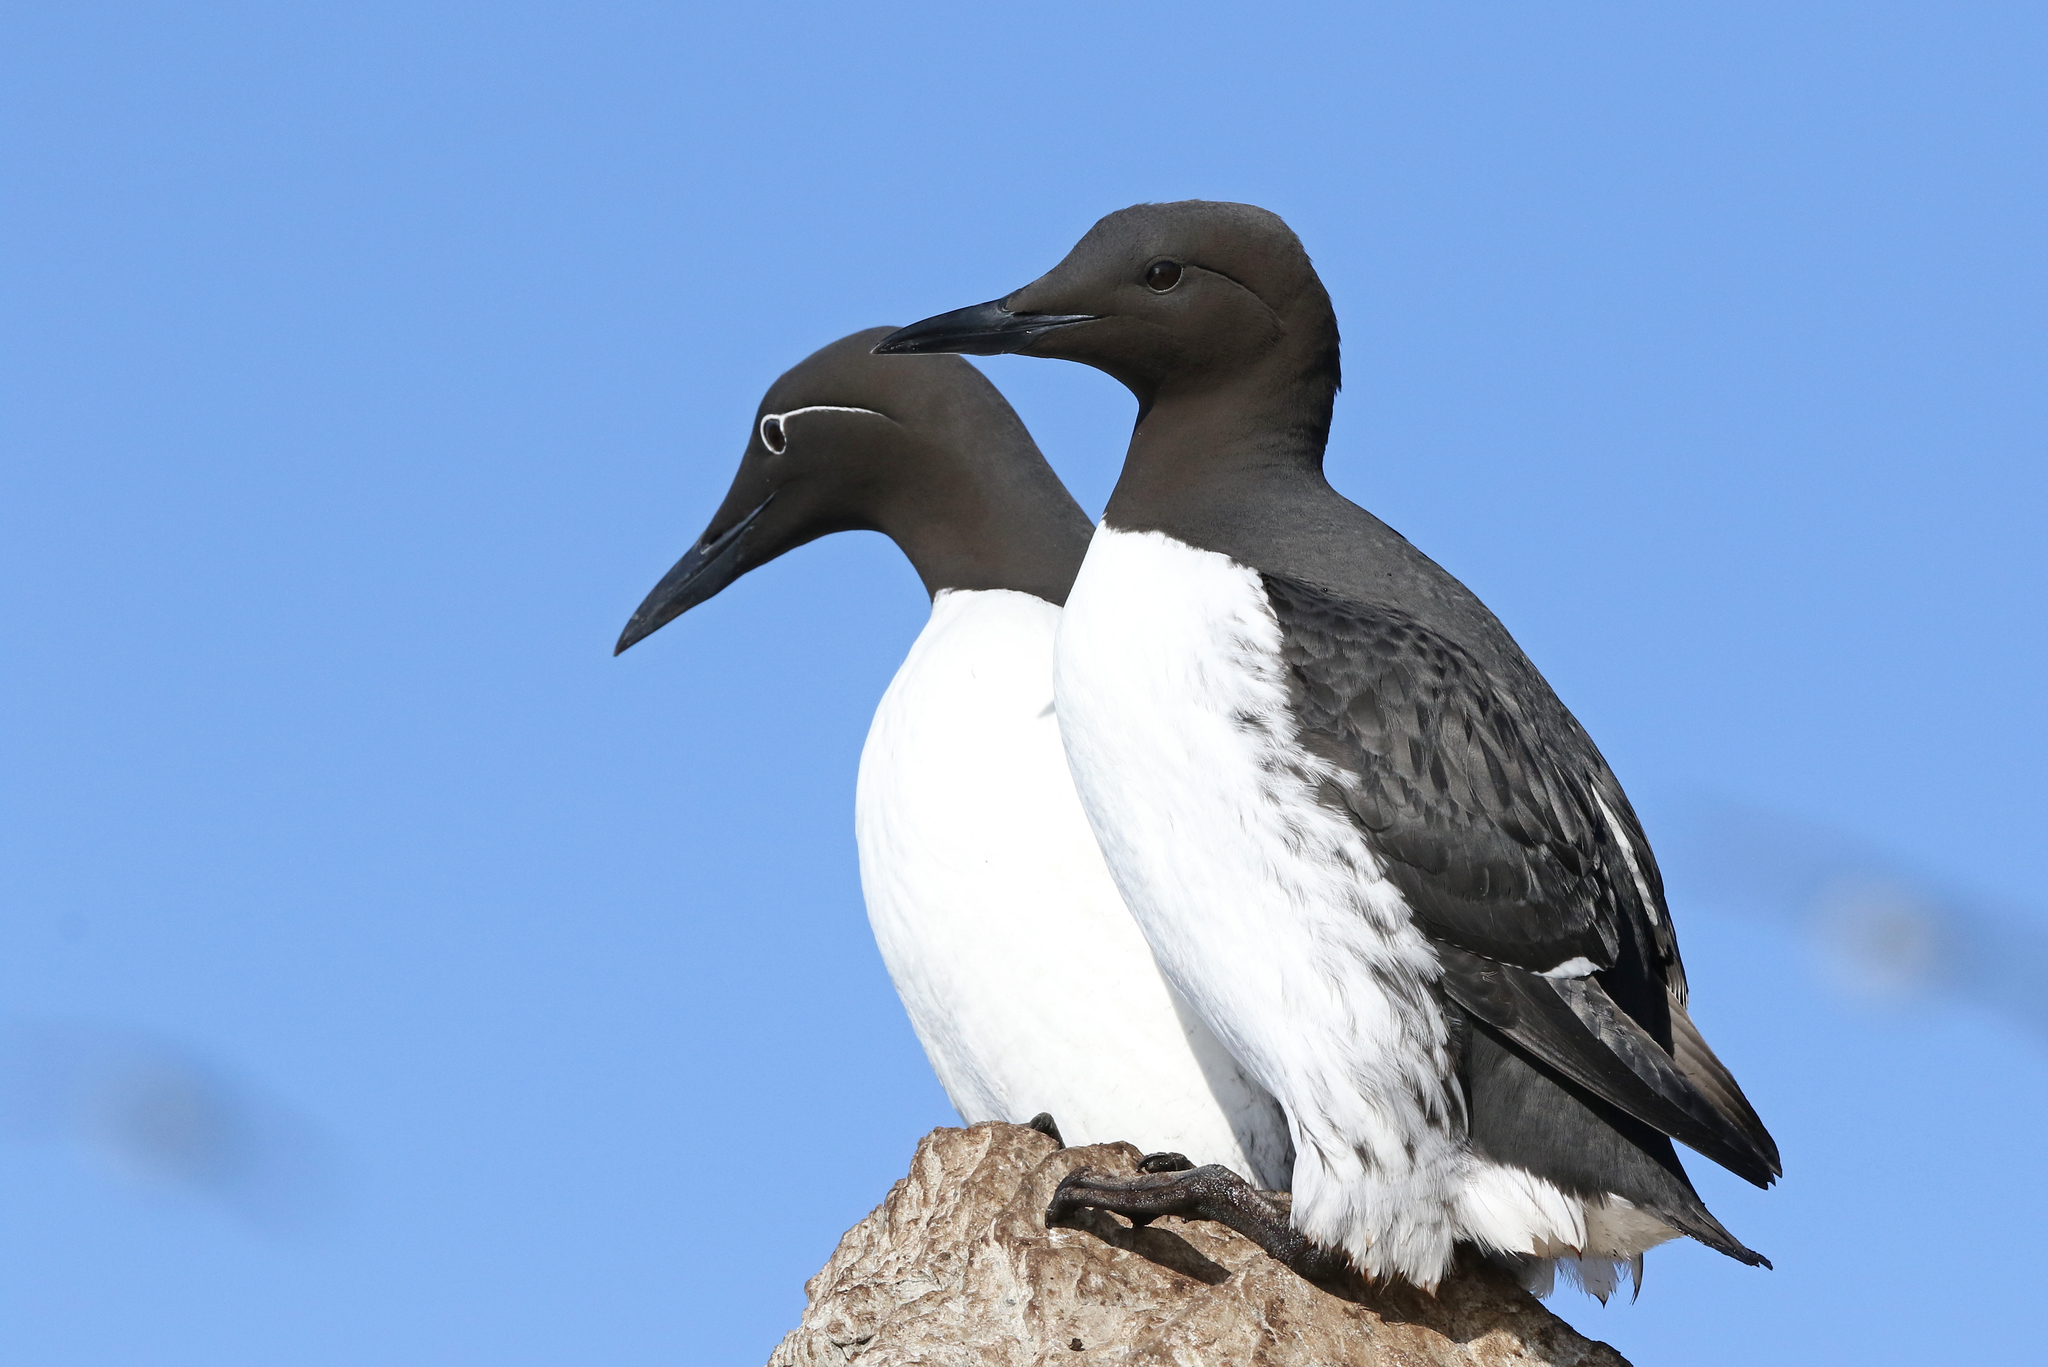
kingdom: Animalia
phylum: Chordata
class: Aves
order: Charadriiformes
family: Alcidae
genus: Uria
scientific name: Uria aalge
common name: Common murre
